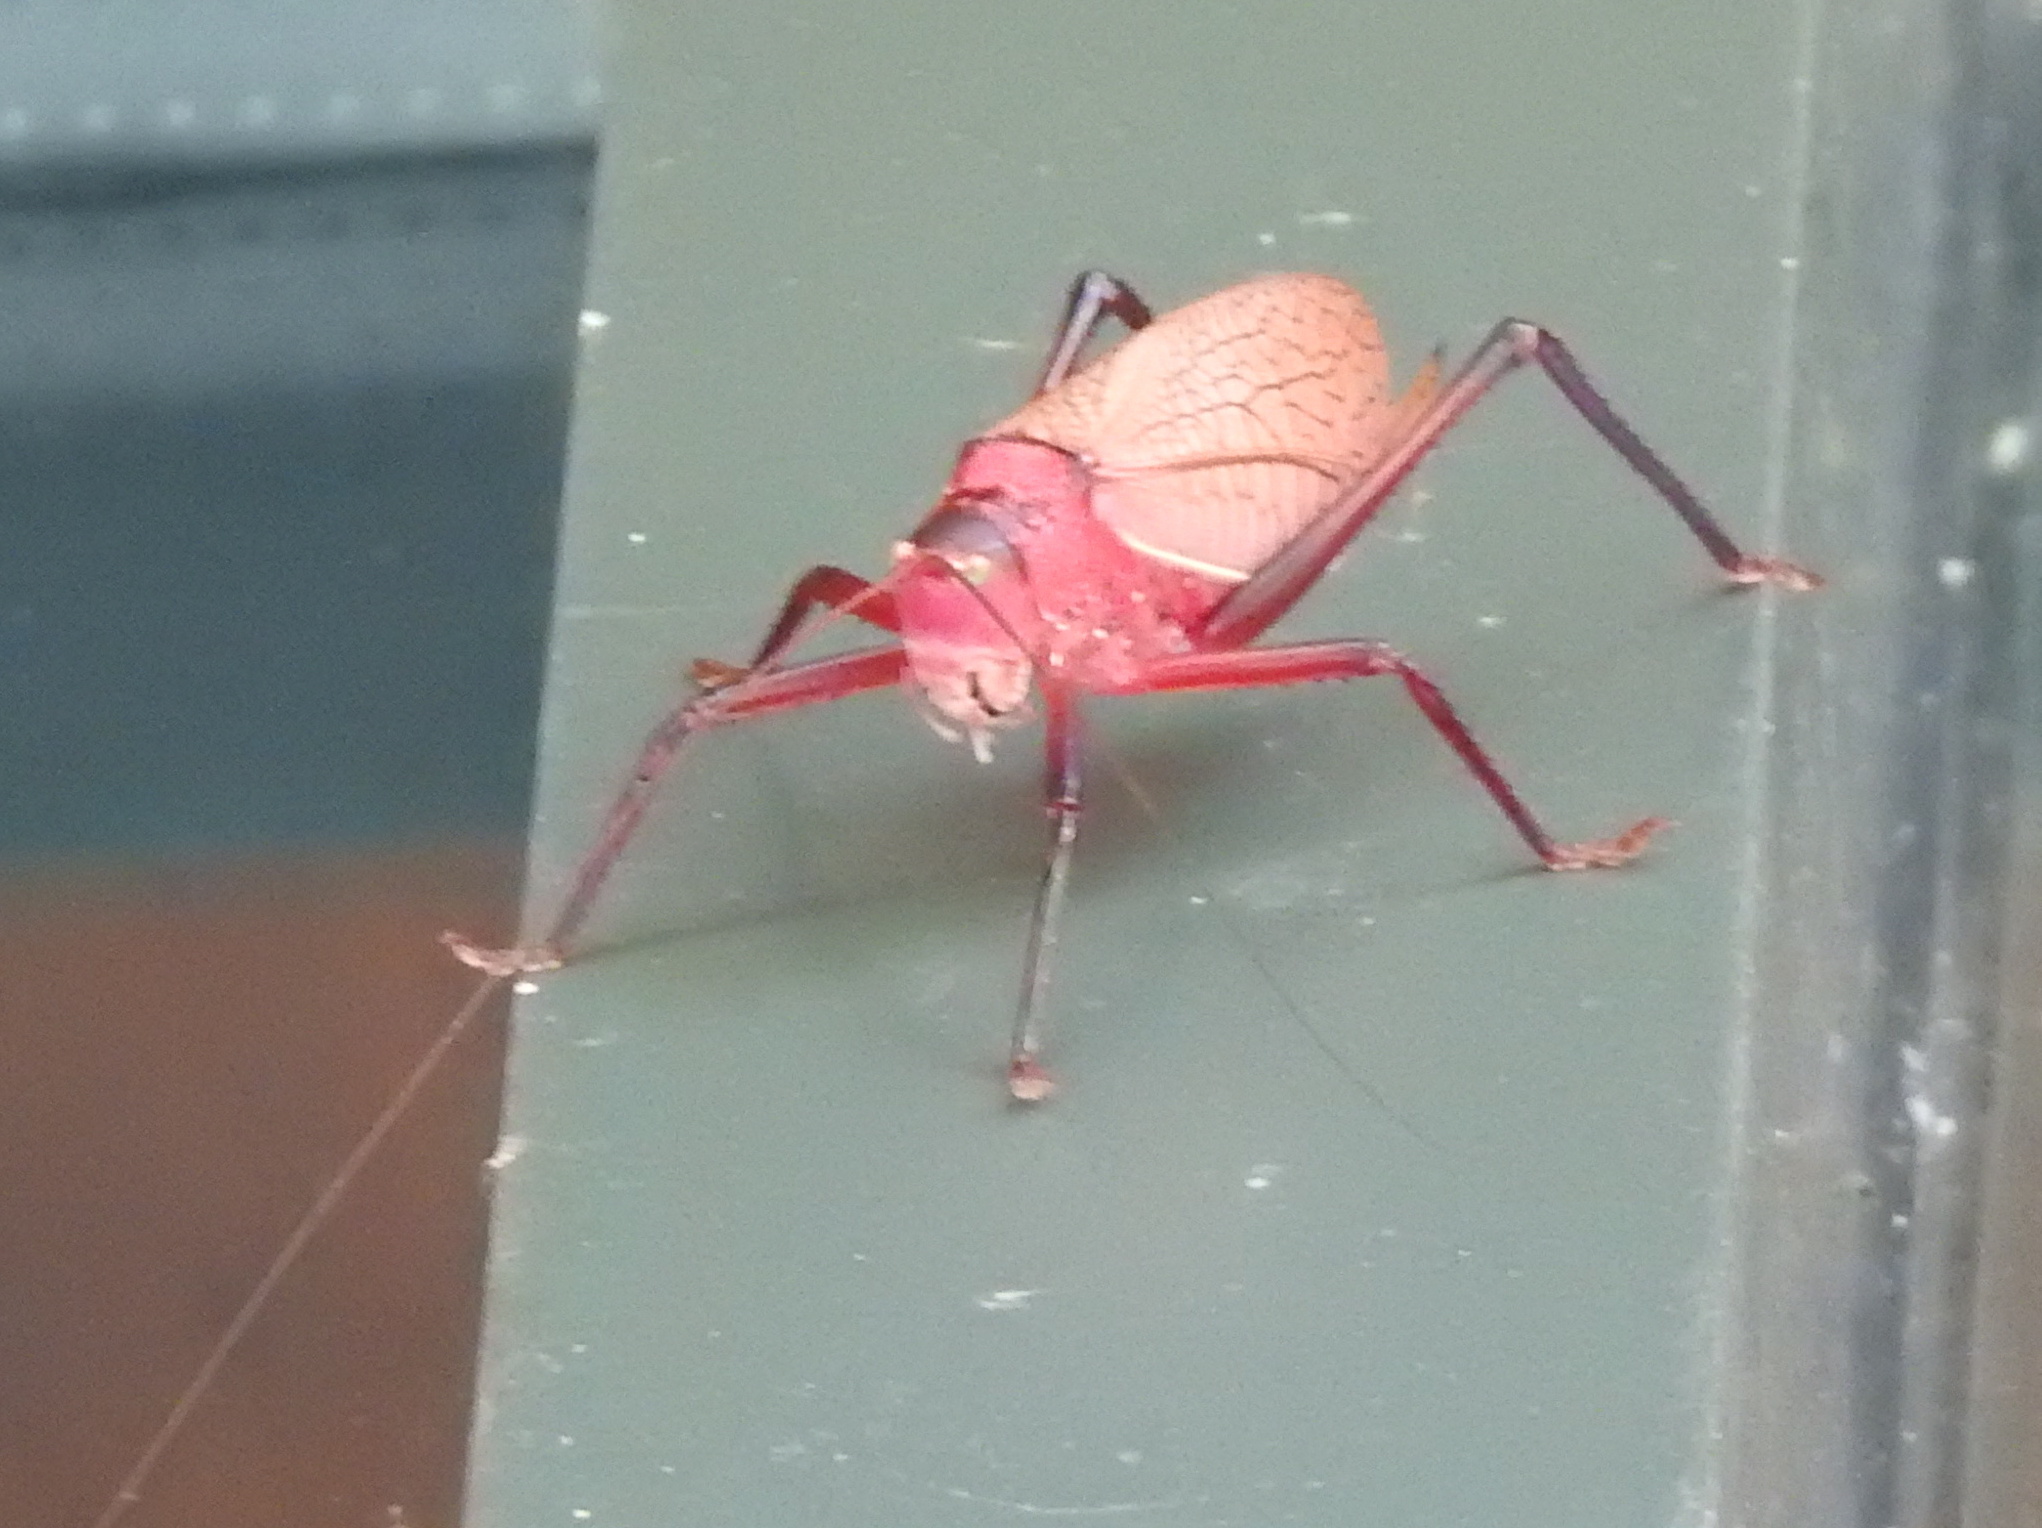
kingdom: Animalia
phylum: Arthropoda
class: Insecta
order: Orthoptera
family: Tettigoniidae
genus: Paracyrtophyllus
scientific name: Paracyrtophyllus robustus
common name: Central texas leaf katydid
